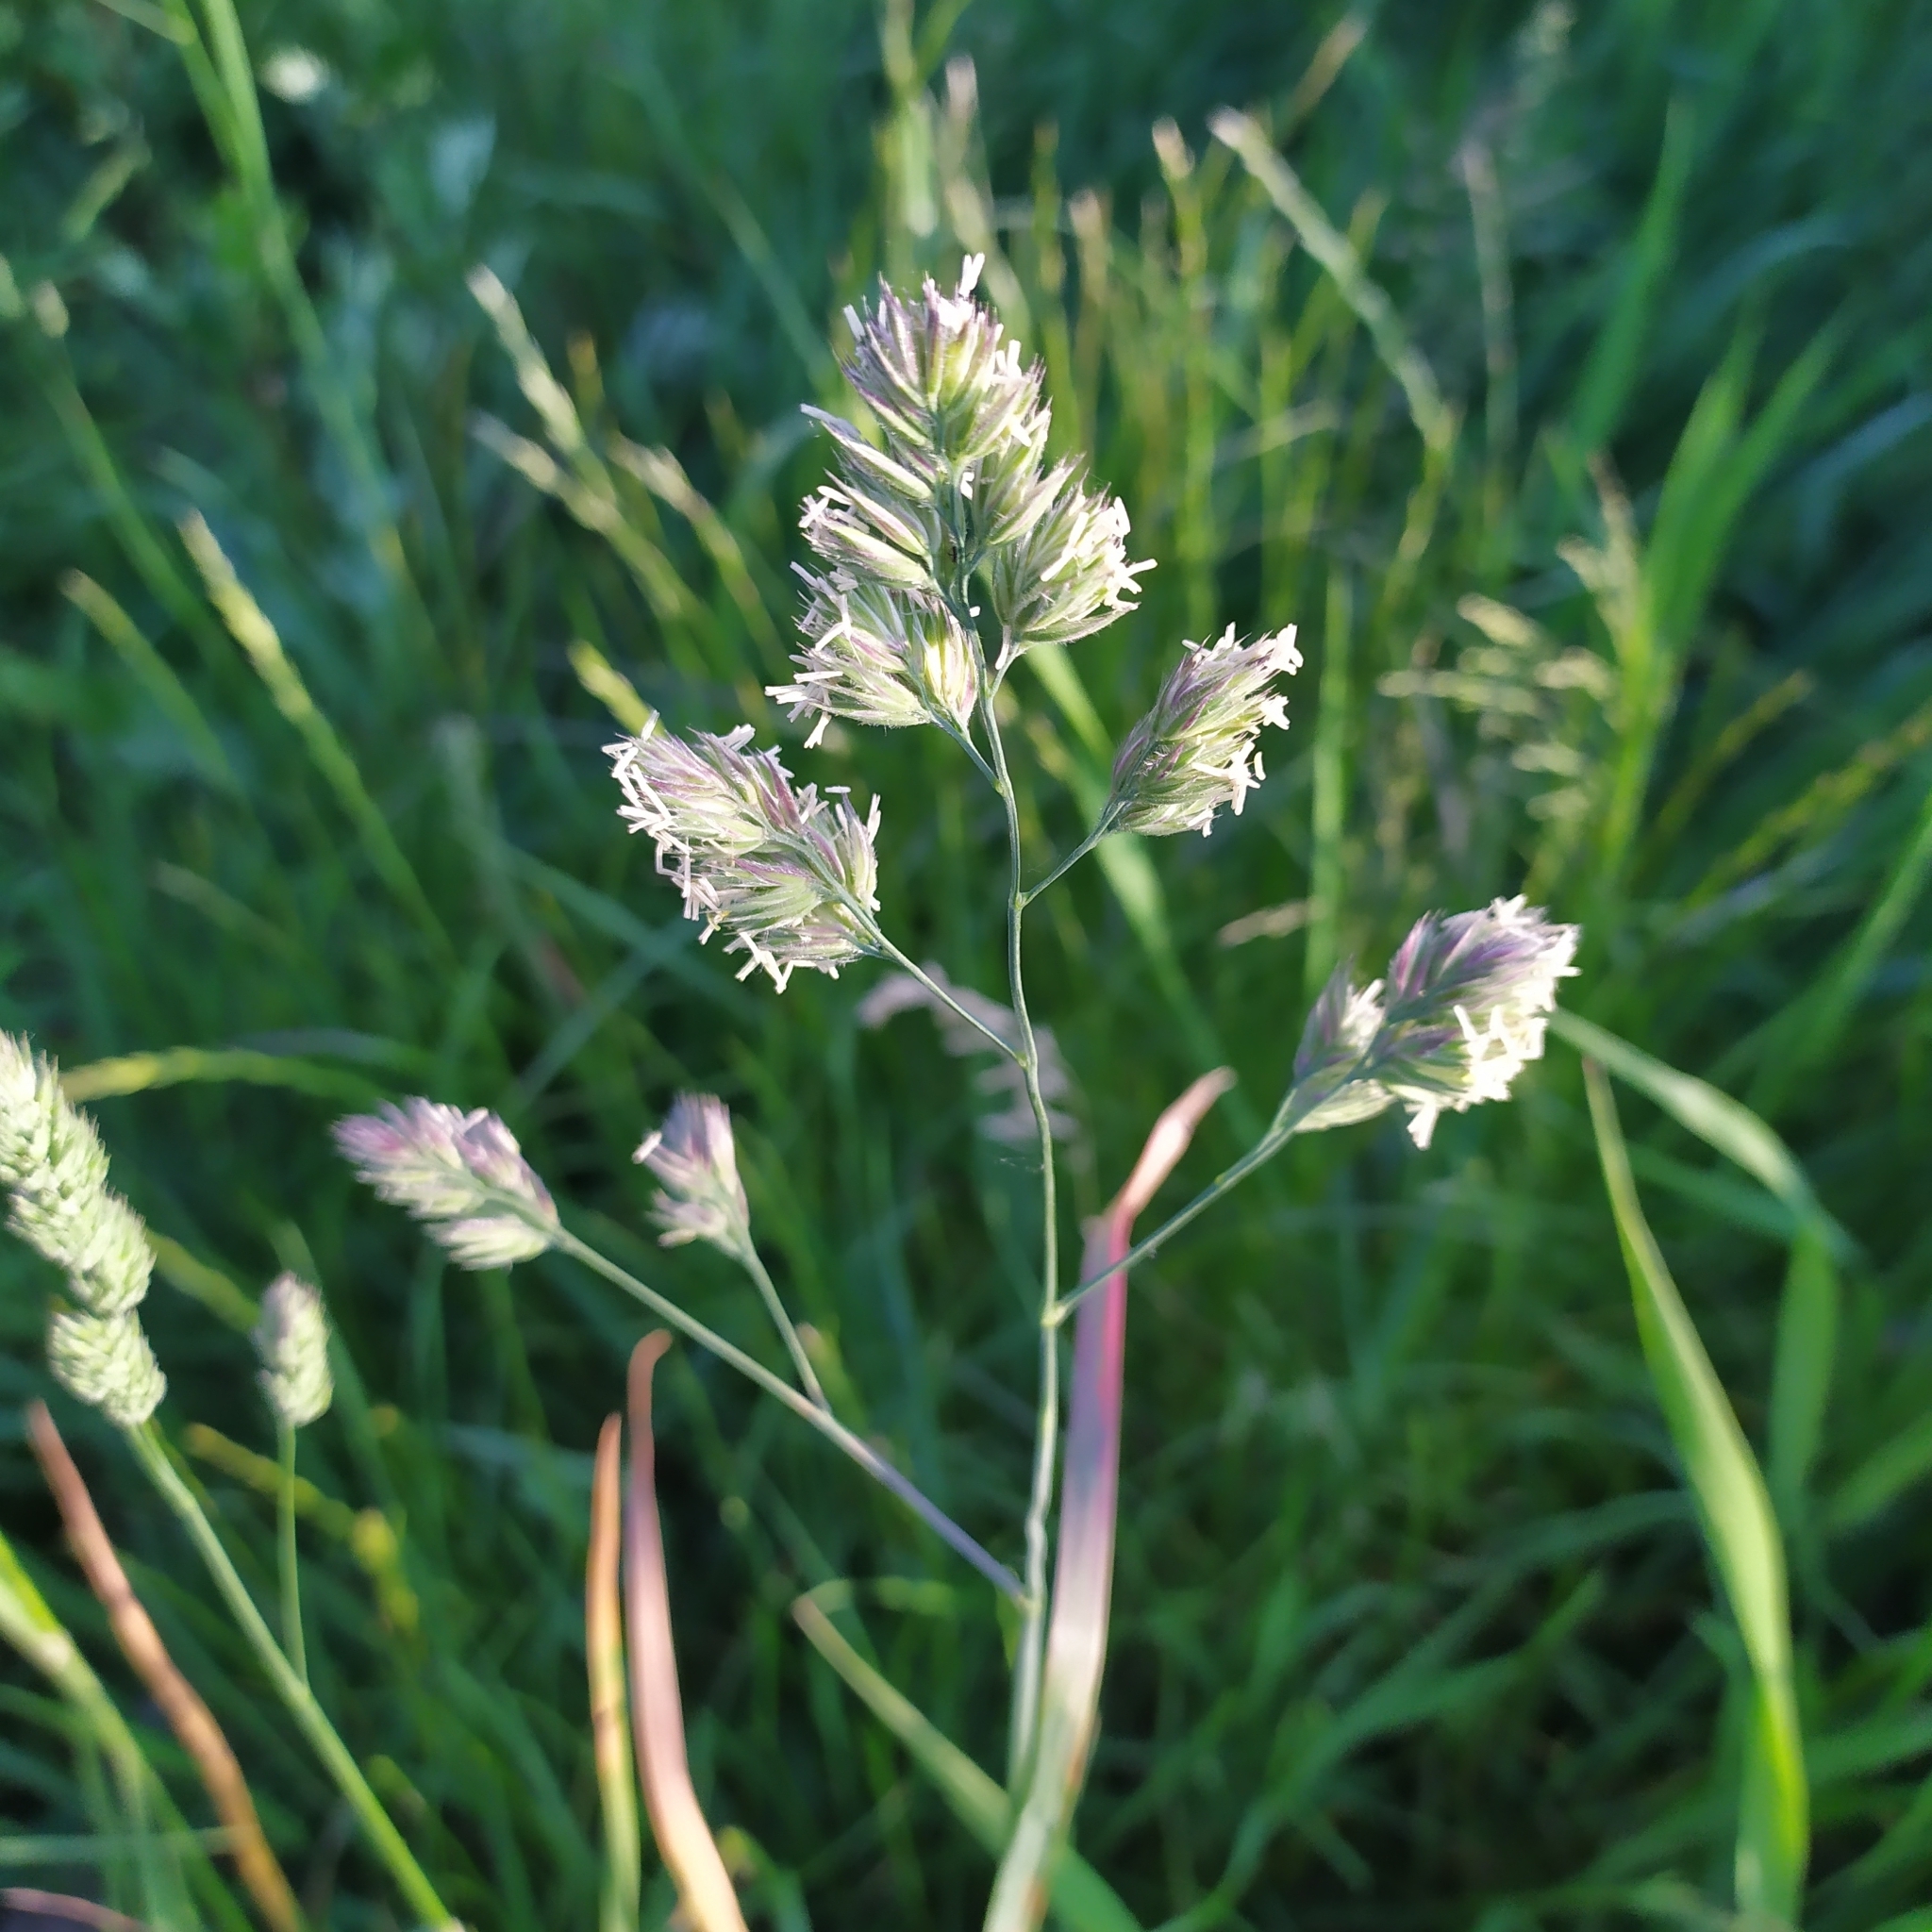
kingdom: Plantae
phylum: Tracheophyta
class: Liliopsida
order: Poales
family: Poaceae
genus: Dactylis
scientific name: Dactylis glomerata
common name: Orchardgrass
